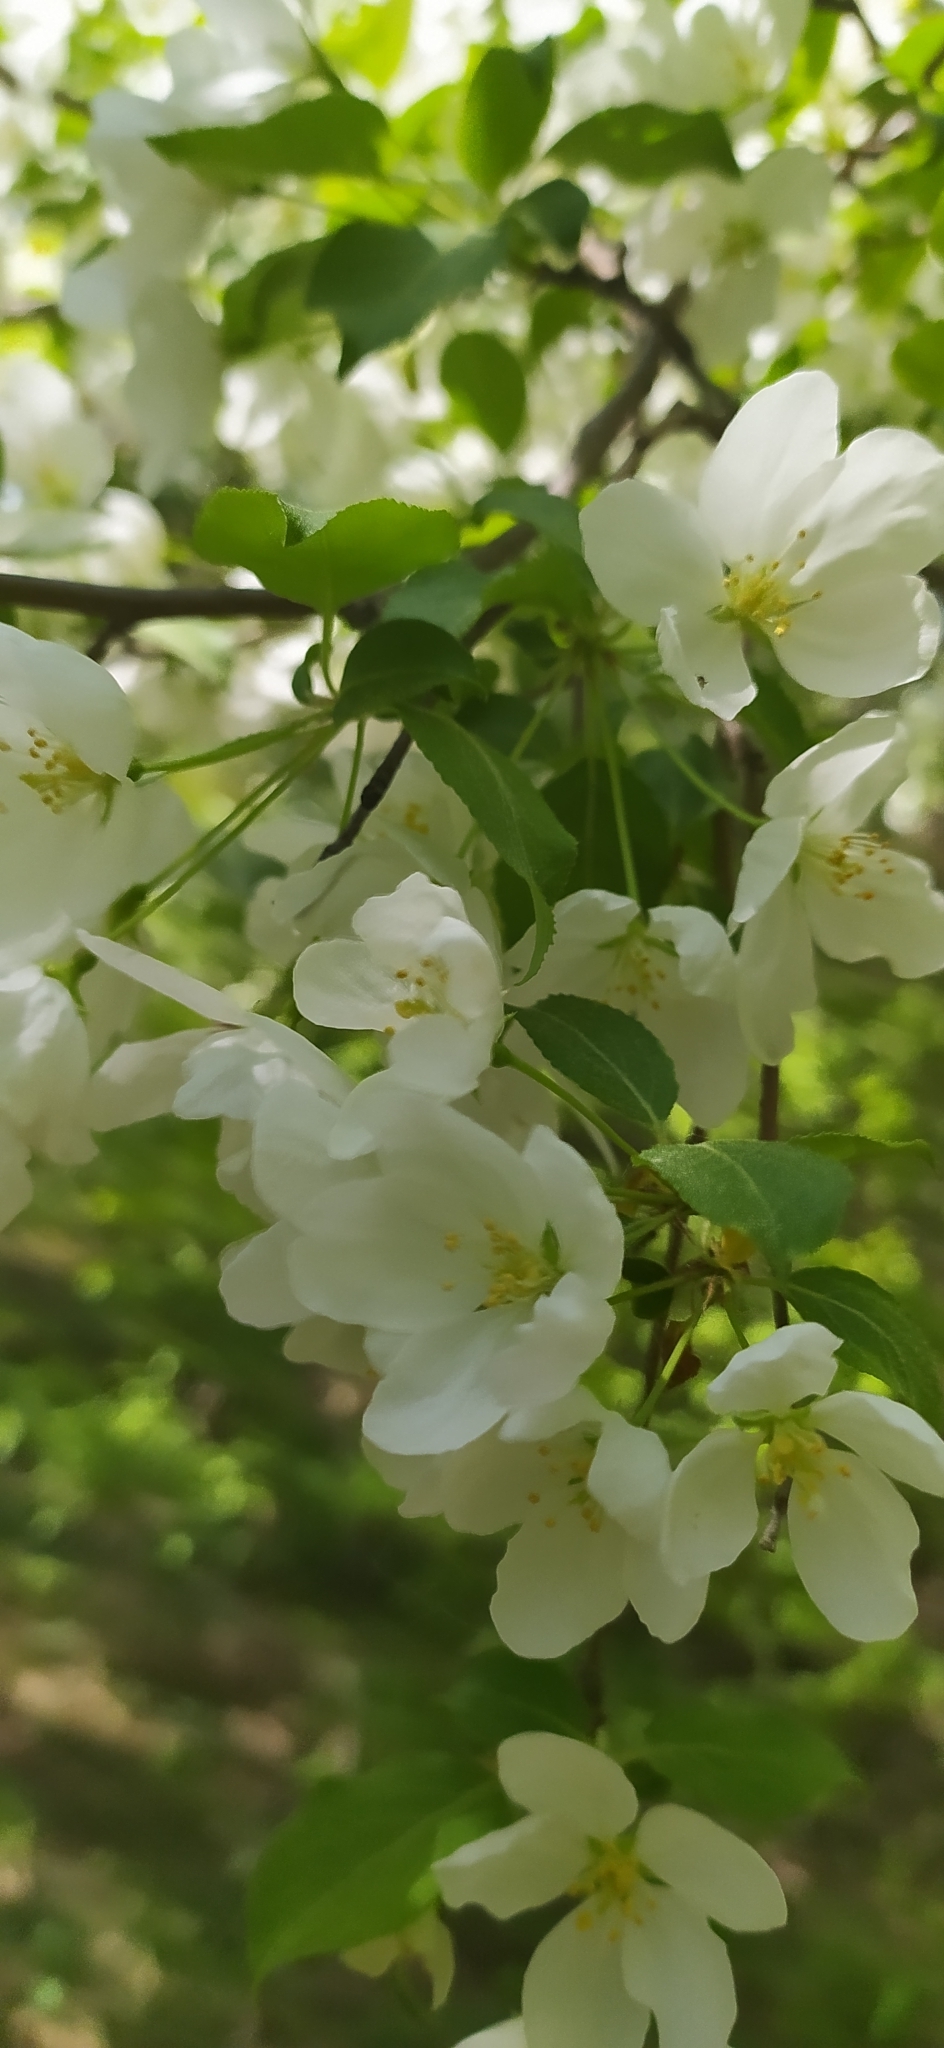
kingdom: Plantae
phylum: Tracheophyta
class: Magnoliopsida
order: Rosales
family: Rosaceae
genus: Malus
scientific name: Malus baccata
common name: Siberian crab
